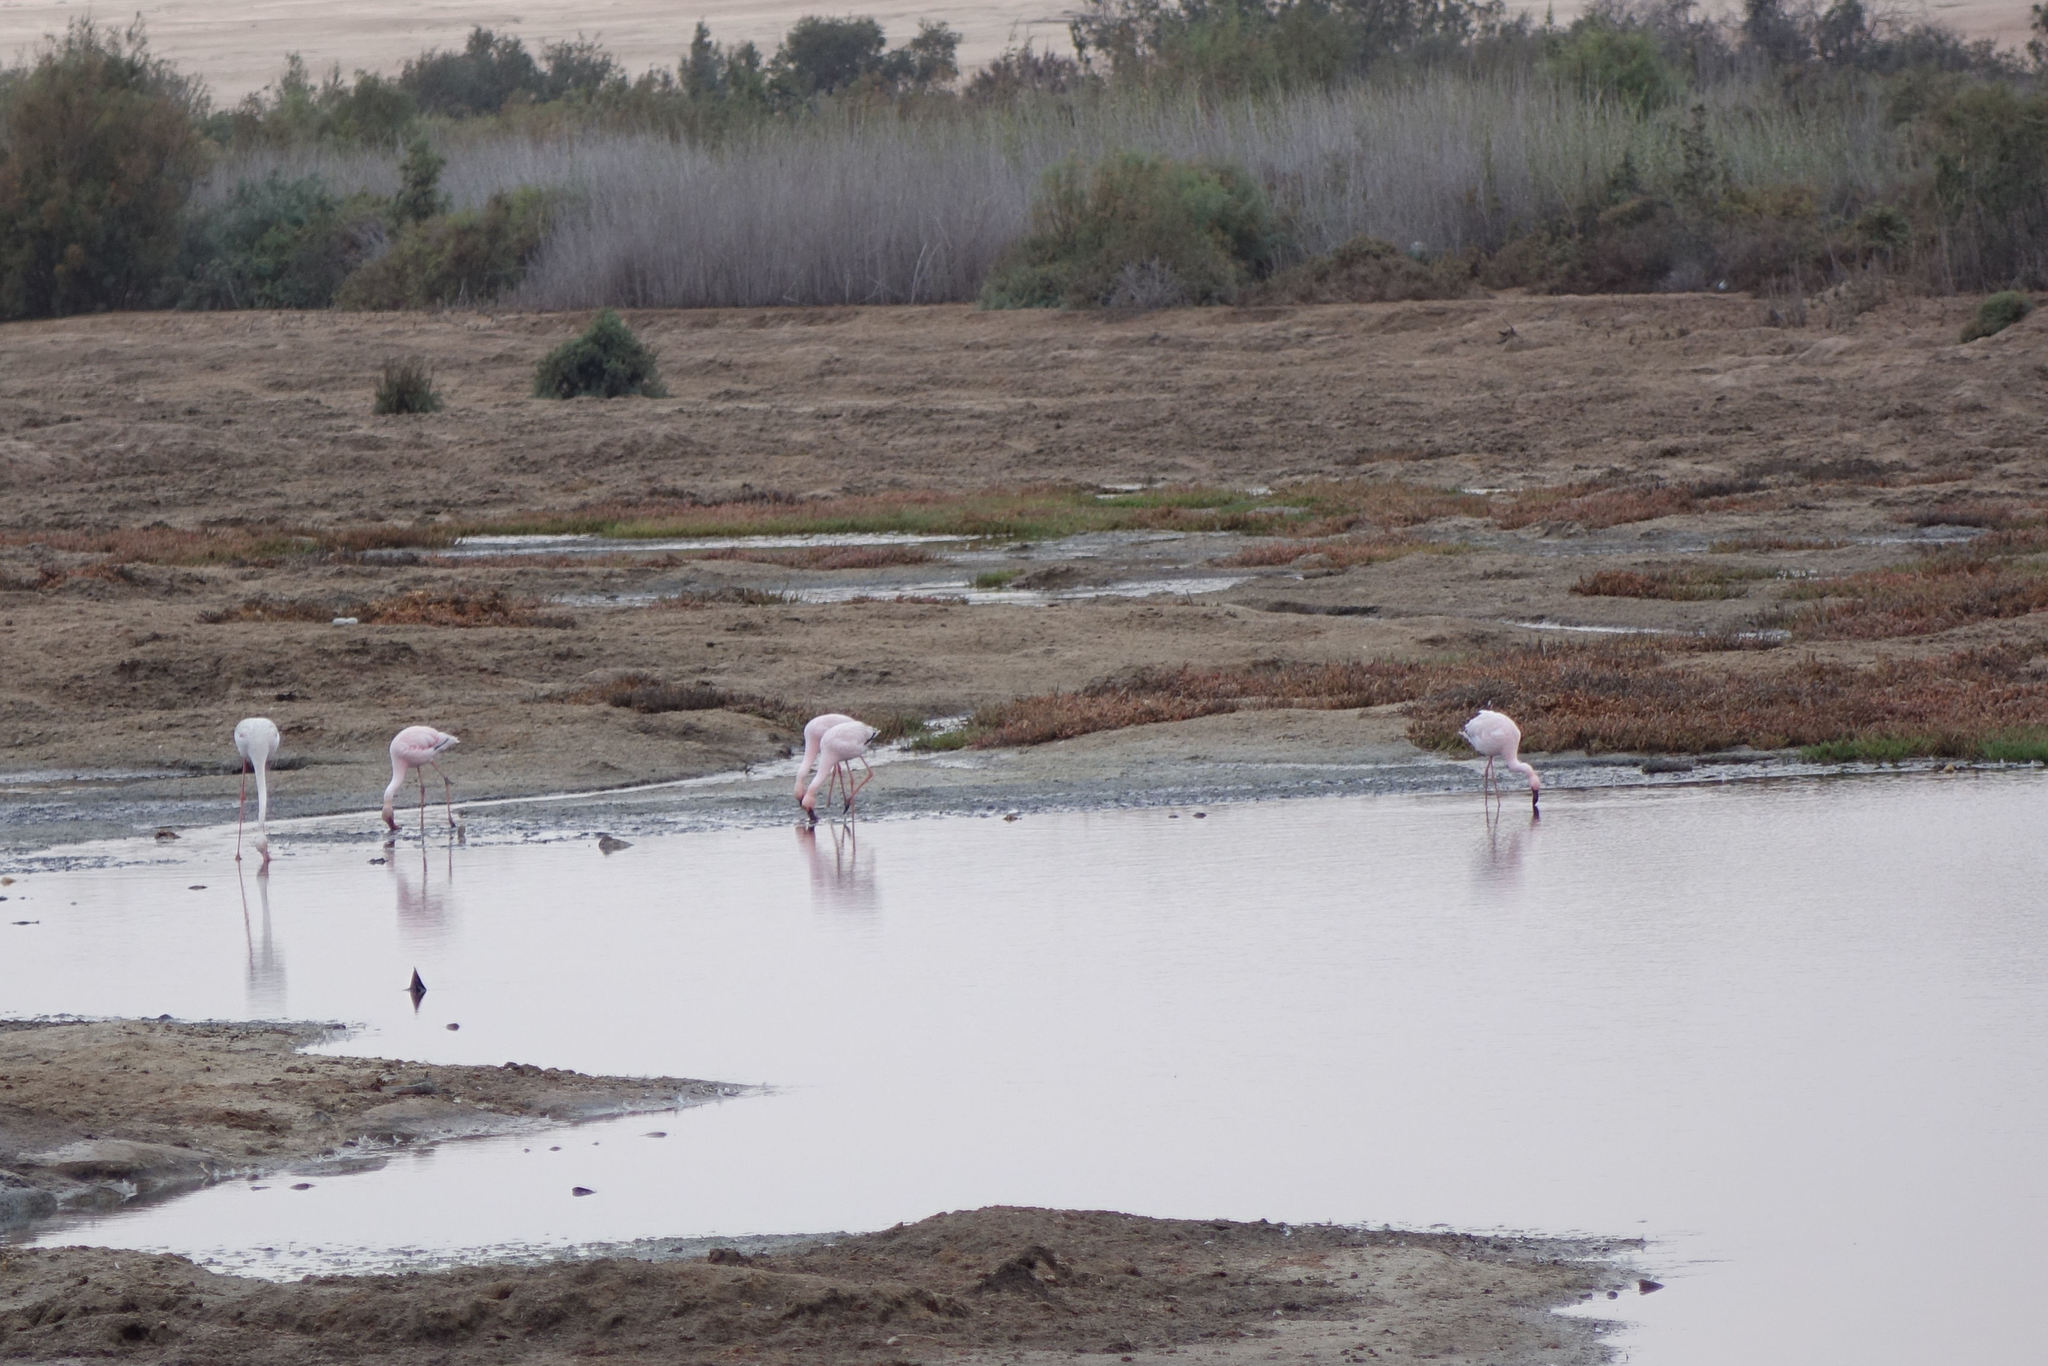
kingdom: Animalia
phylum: Chordata
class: Aves
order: Phoenicopteriformes
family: Phoenicopteridae
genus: Phoeniconaias
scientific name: Phoeniconaias minor
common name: Lesser flamingo
